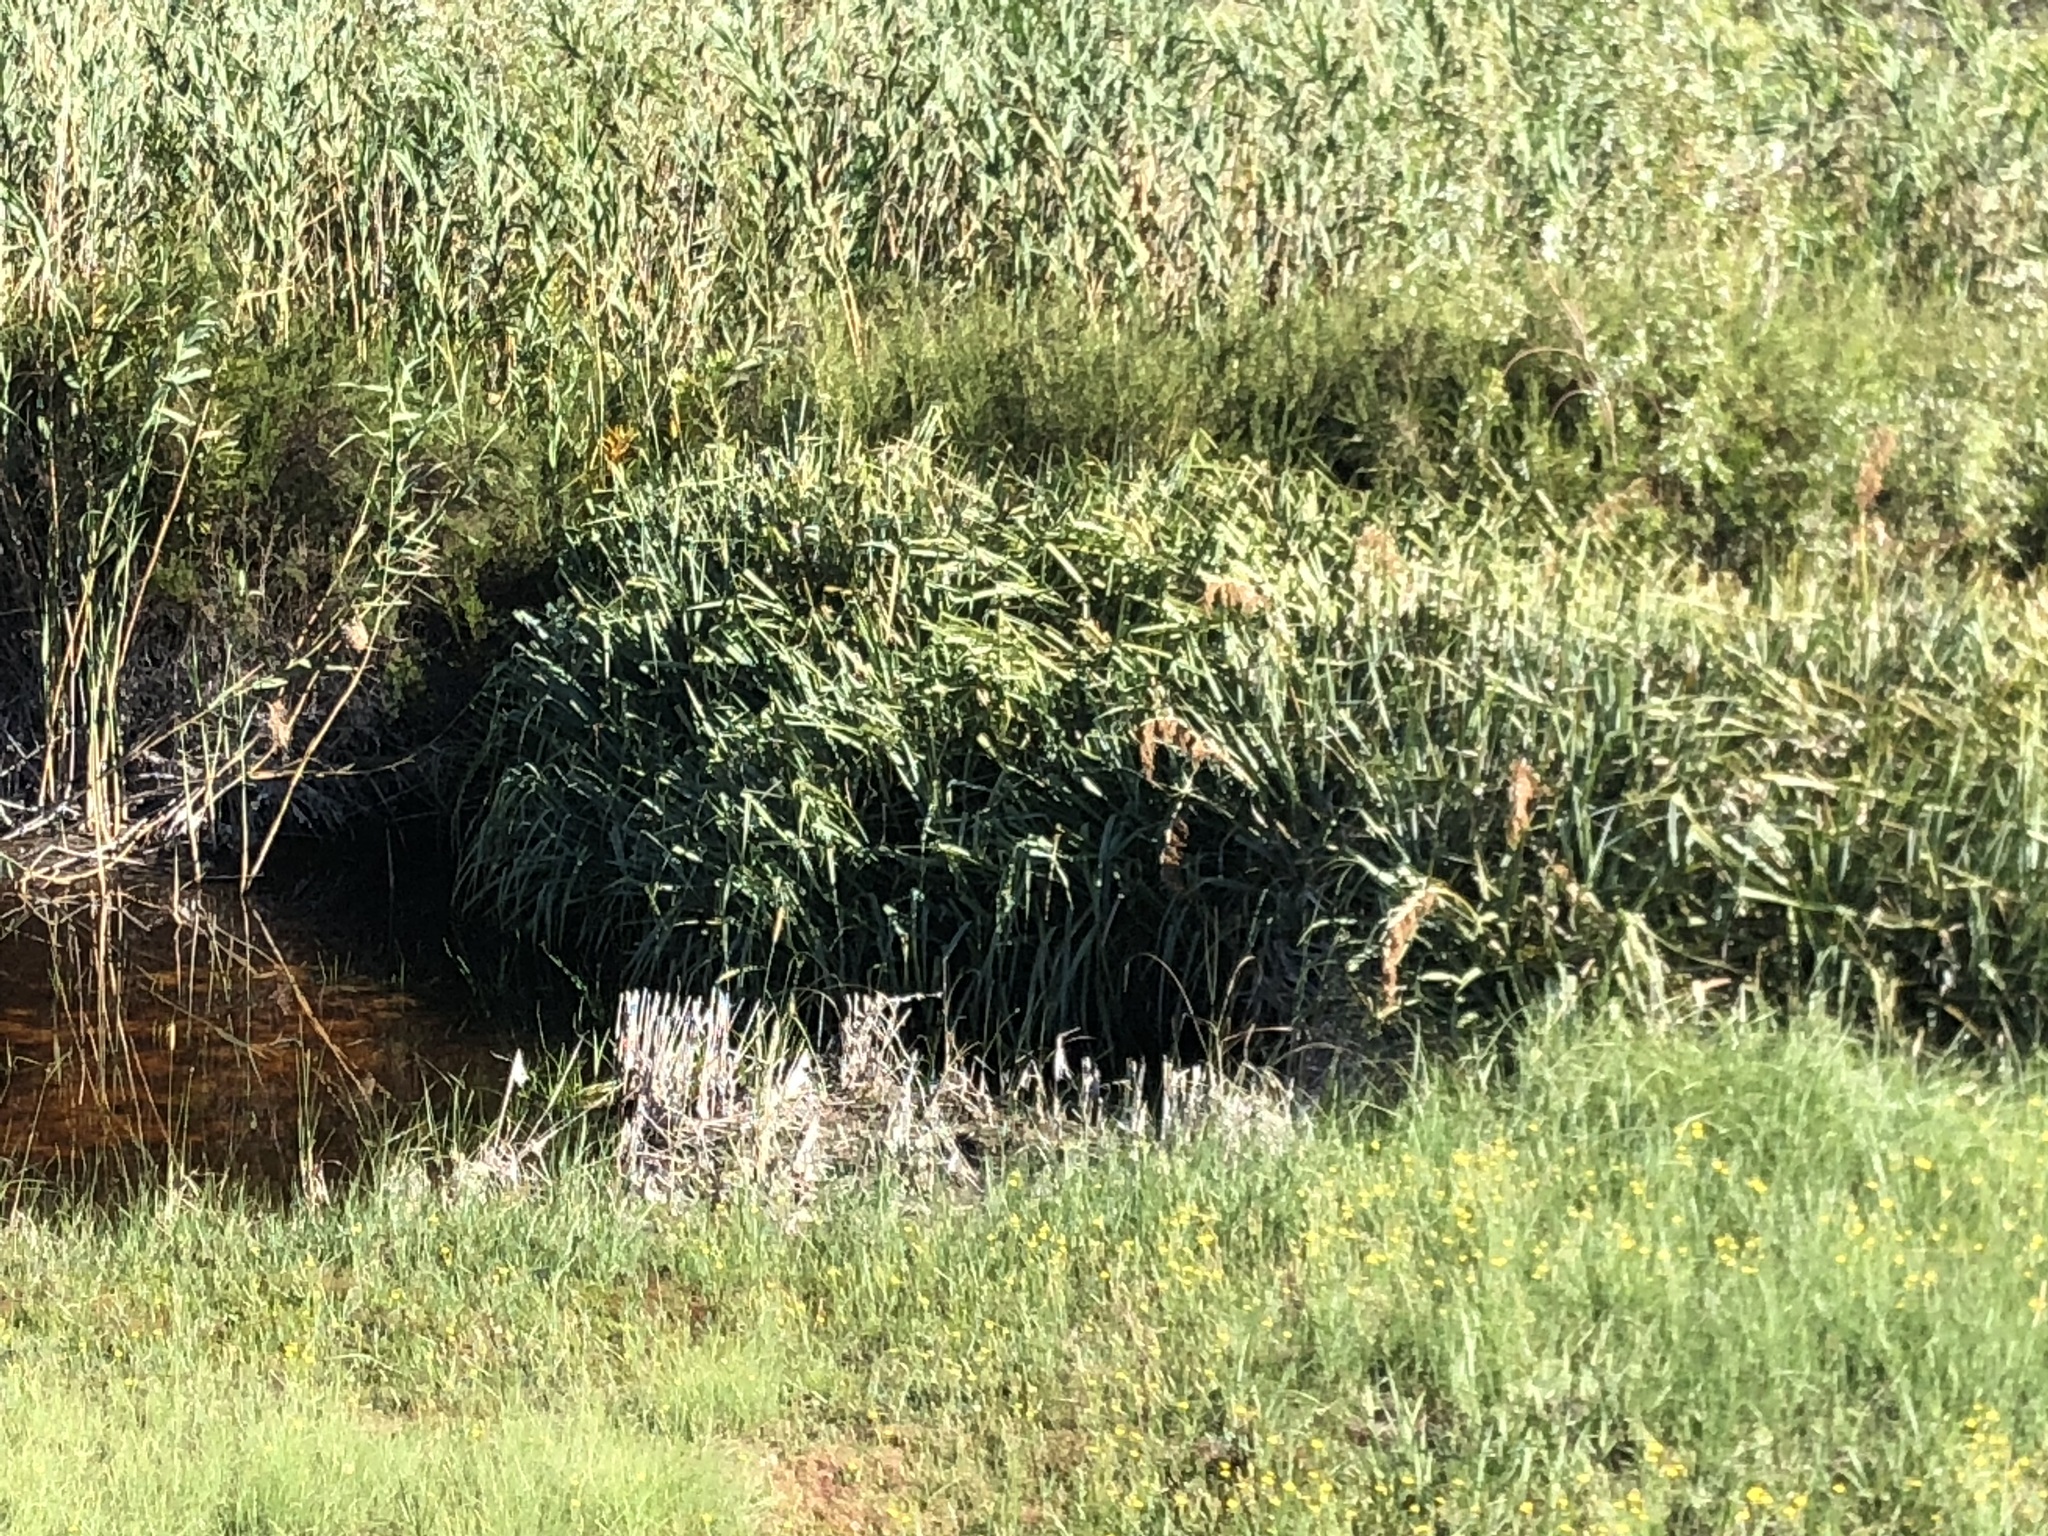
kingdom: Plantae
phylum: Tracheophyta
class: Liliopsida
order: Poales
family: Thurniaceae
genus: Prionium
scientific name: Prionium serratum
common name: Palmiet
